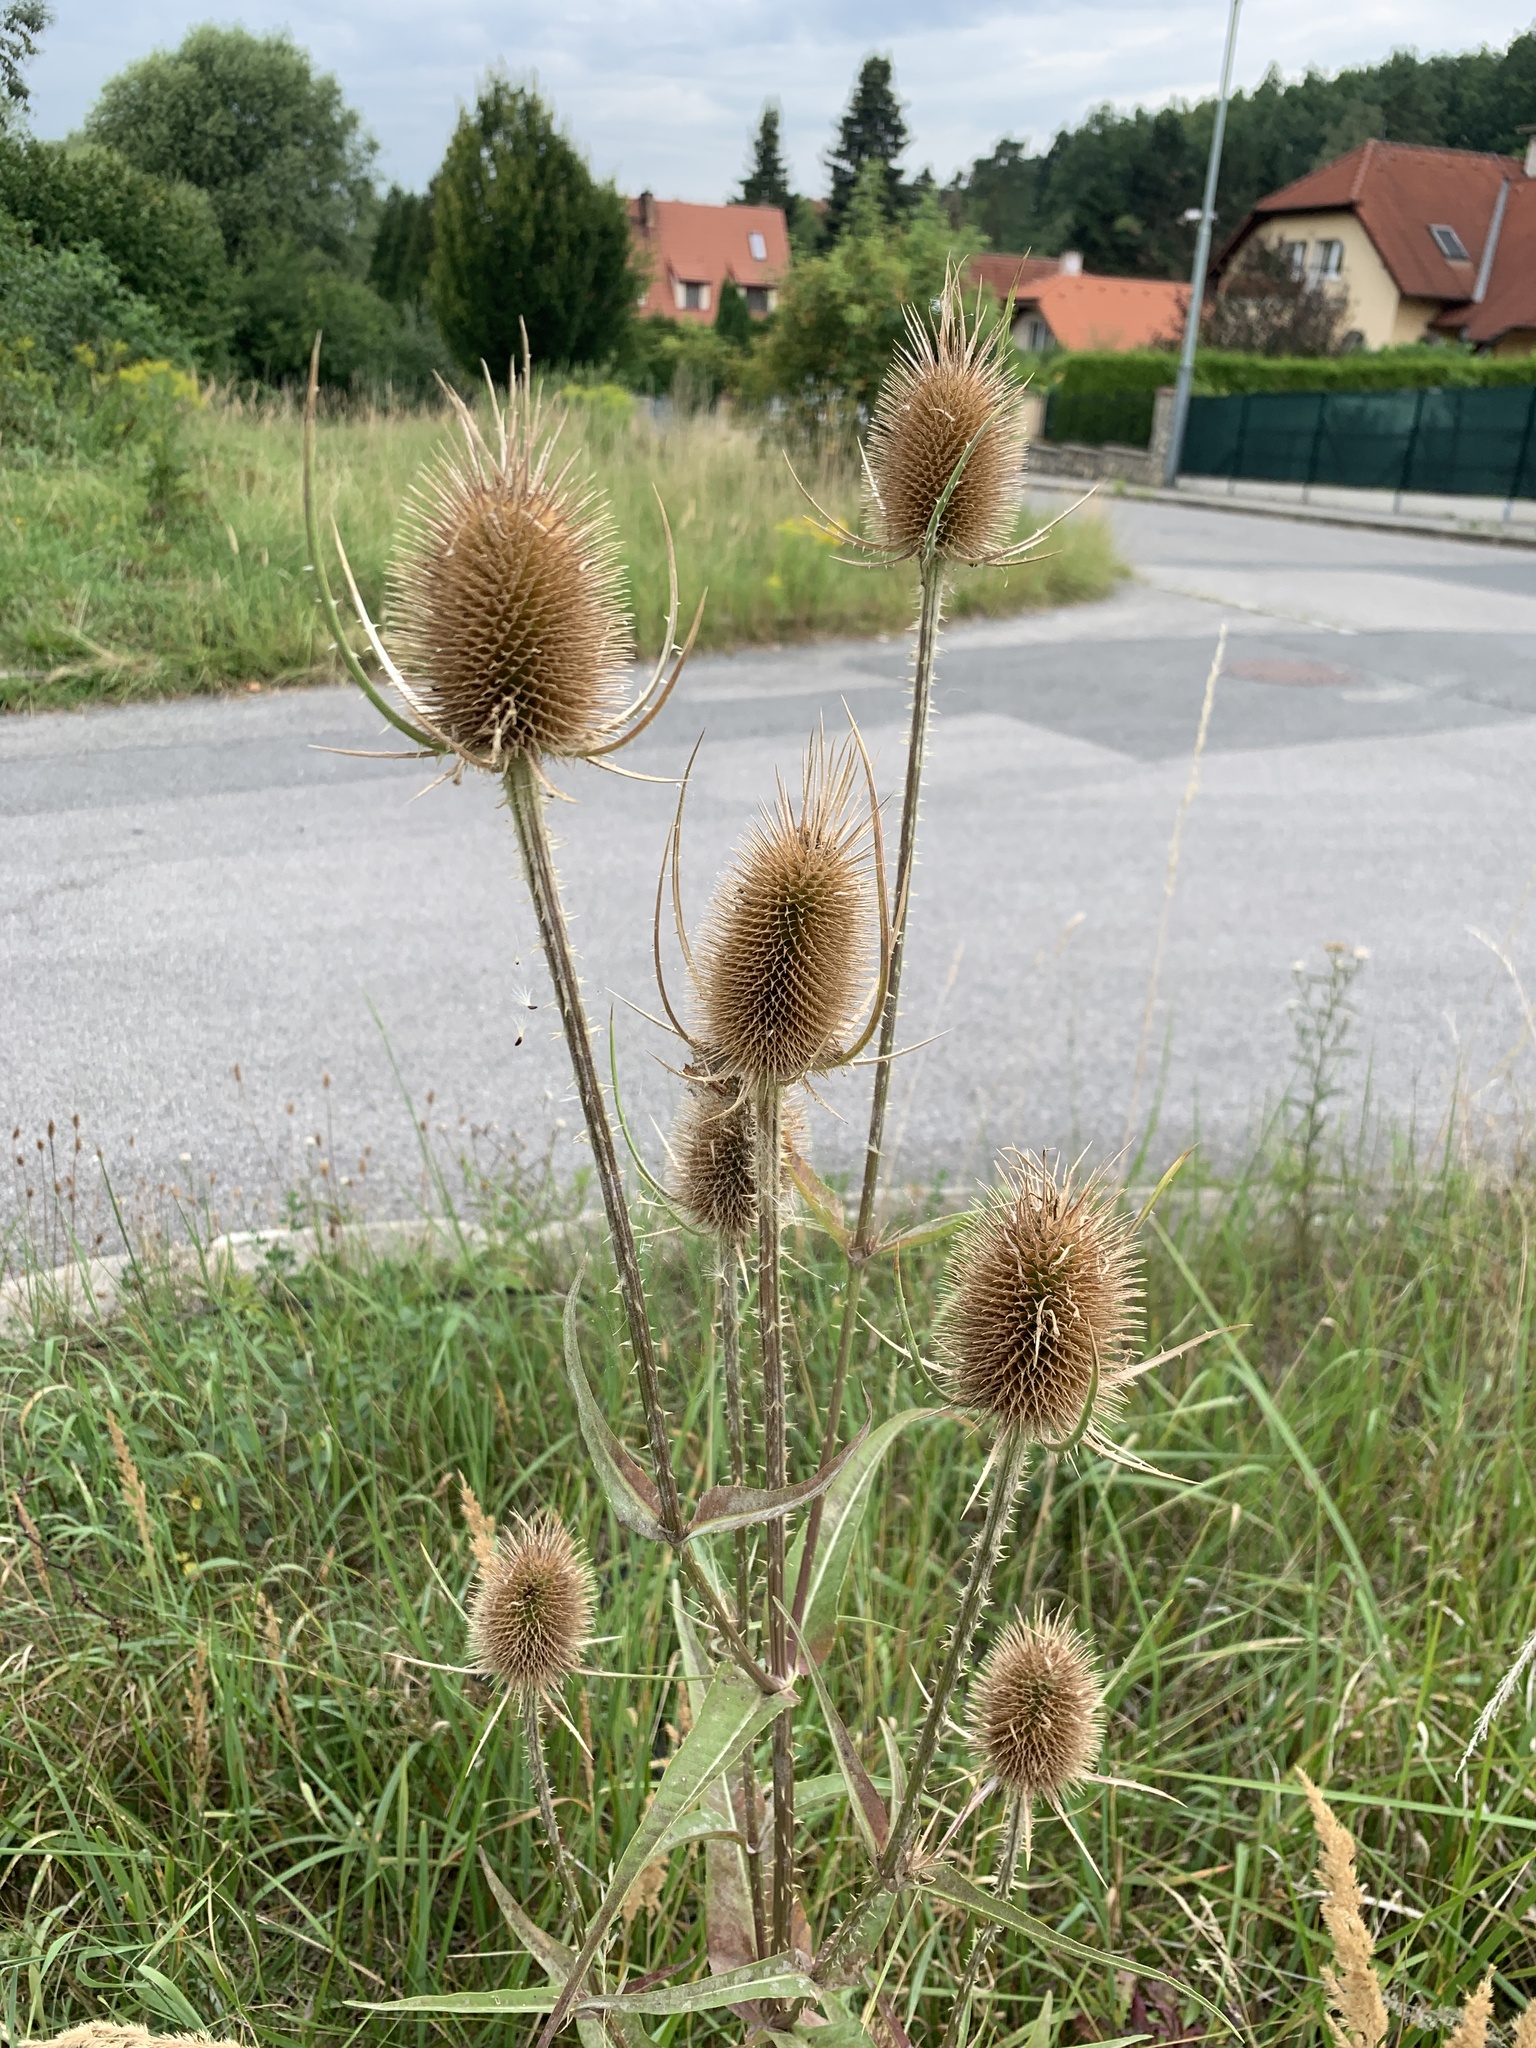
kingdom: Plantae
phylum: Tracheophyta
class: Magnoliopsida
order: Dipsacales
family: Caprifoliaceae
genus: Dipsacus
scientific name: Dipsacus fullonum
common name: Teasel
